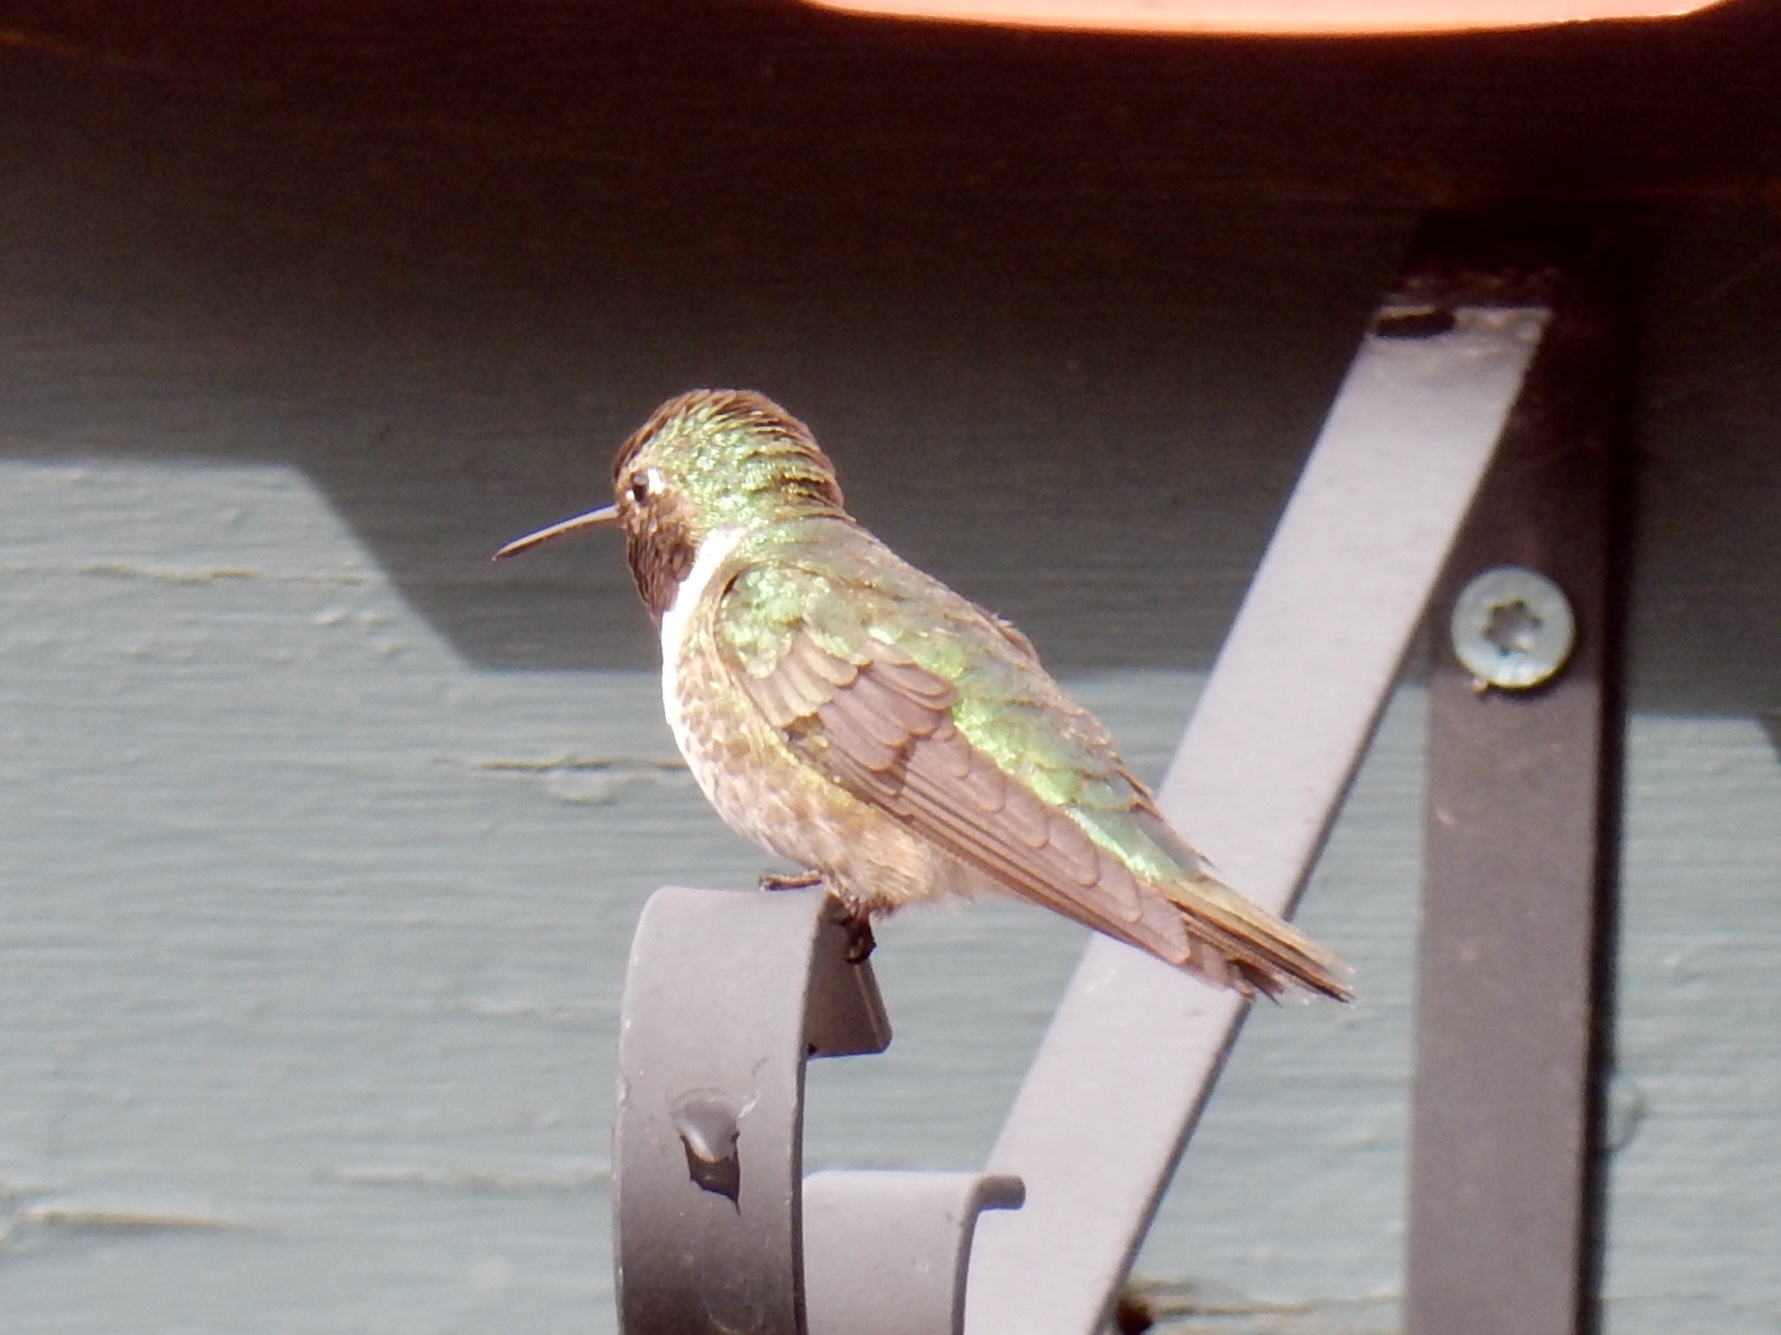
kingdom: Animalia
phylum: Chordata
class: Aves
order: Apodiformes
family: Trochilidae
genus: Selasphorus
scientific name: Selasphorus platycercus
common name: Broad-tailed hummingbird
